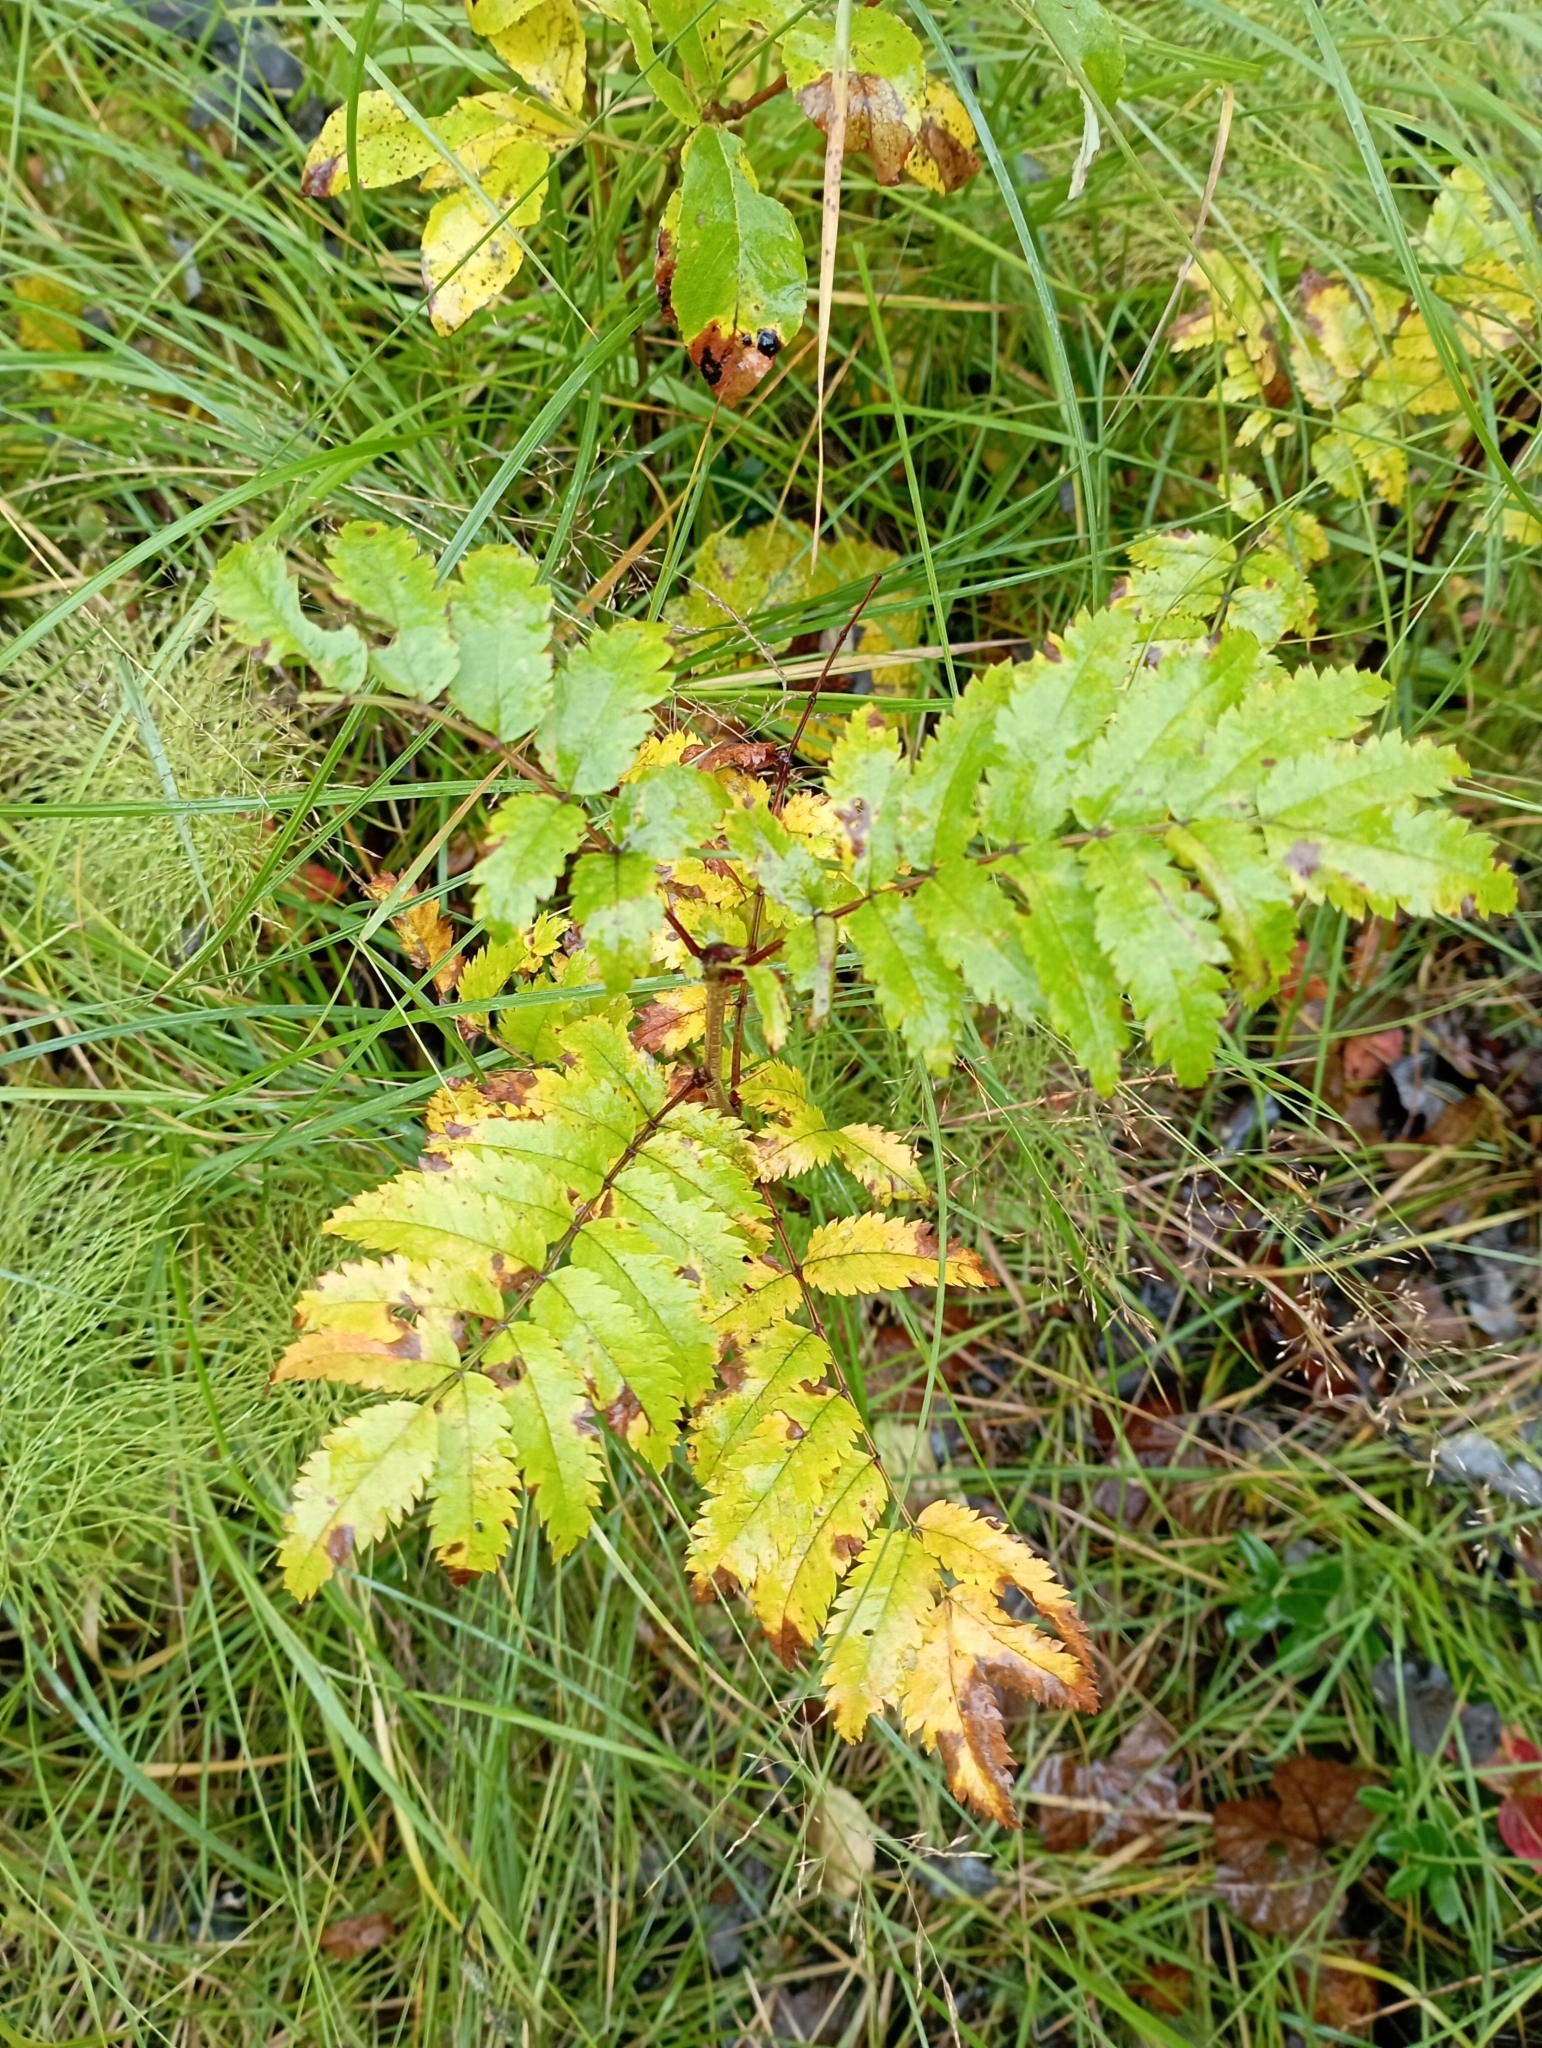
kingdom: Plantae
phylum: Tracheophyta
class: Magnoliopsida
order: Rosales
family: Rosaceae
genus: Sorbus
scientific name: Sorbus aucuparia
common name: Rowan
